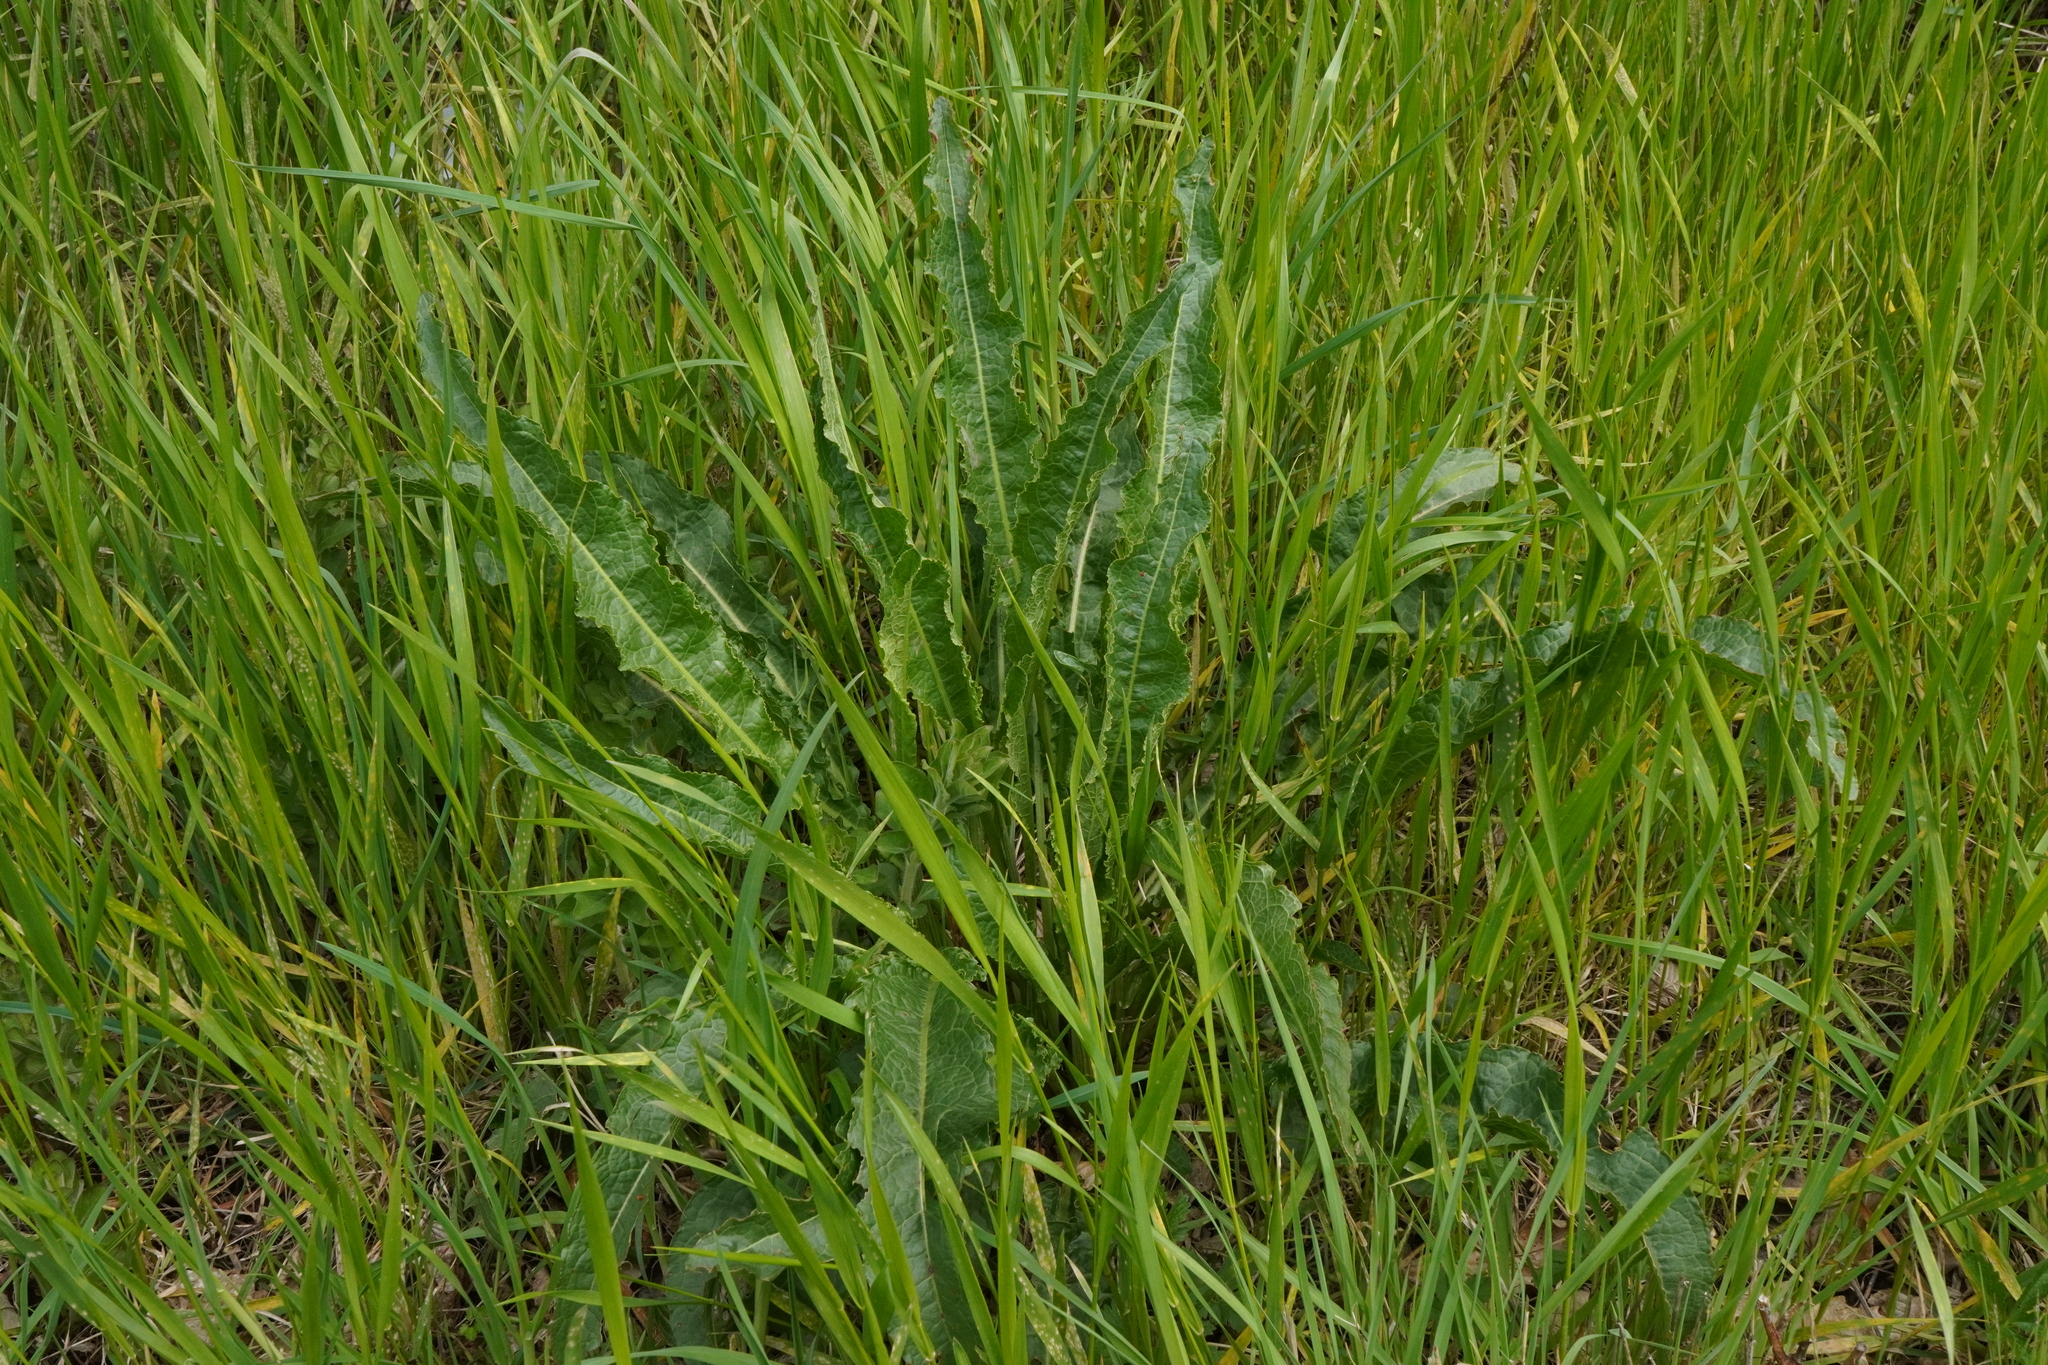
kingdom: Plantae
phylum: Tracheophyta
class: Magnoliopsida
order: Caryophyllales
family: Polygonaceae
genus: Rumex
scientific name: Rumex crispus
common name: Curled dock
